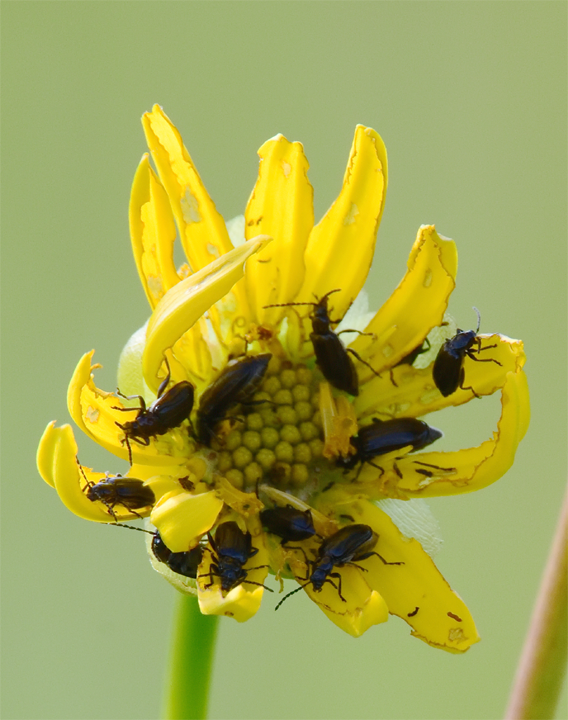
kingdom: Animalia
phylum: Arthropoda
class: Insecta
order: Coleoptera
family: Chrysomelidae
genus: Diabrotica
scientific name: Diabrotica cristata
